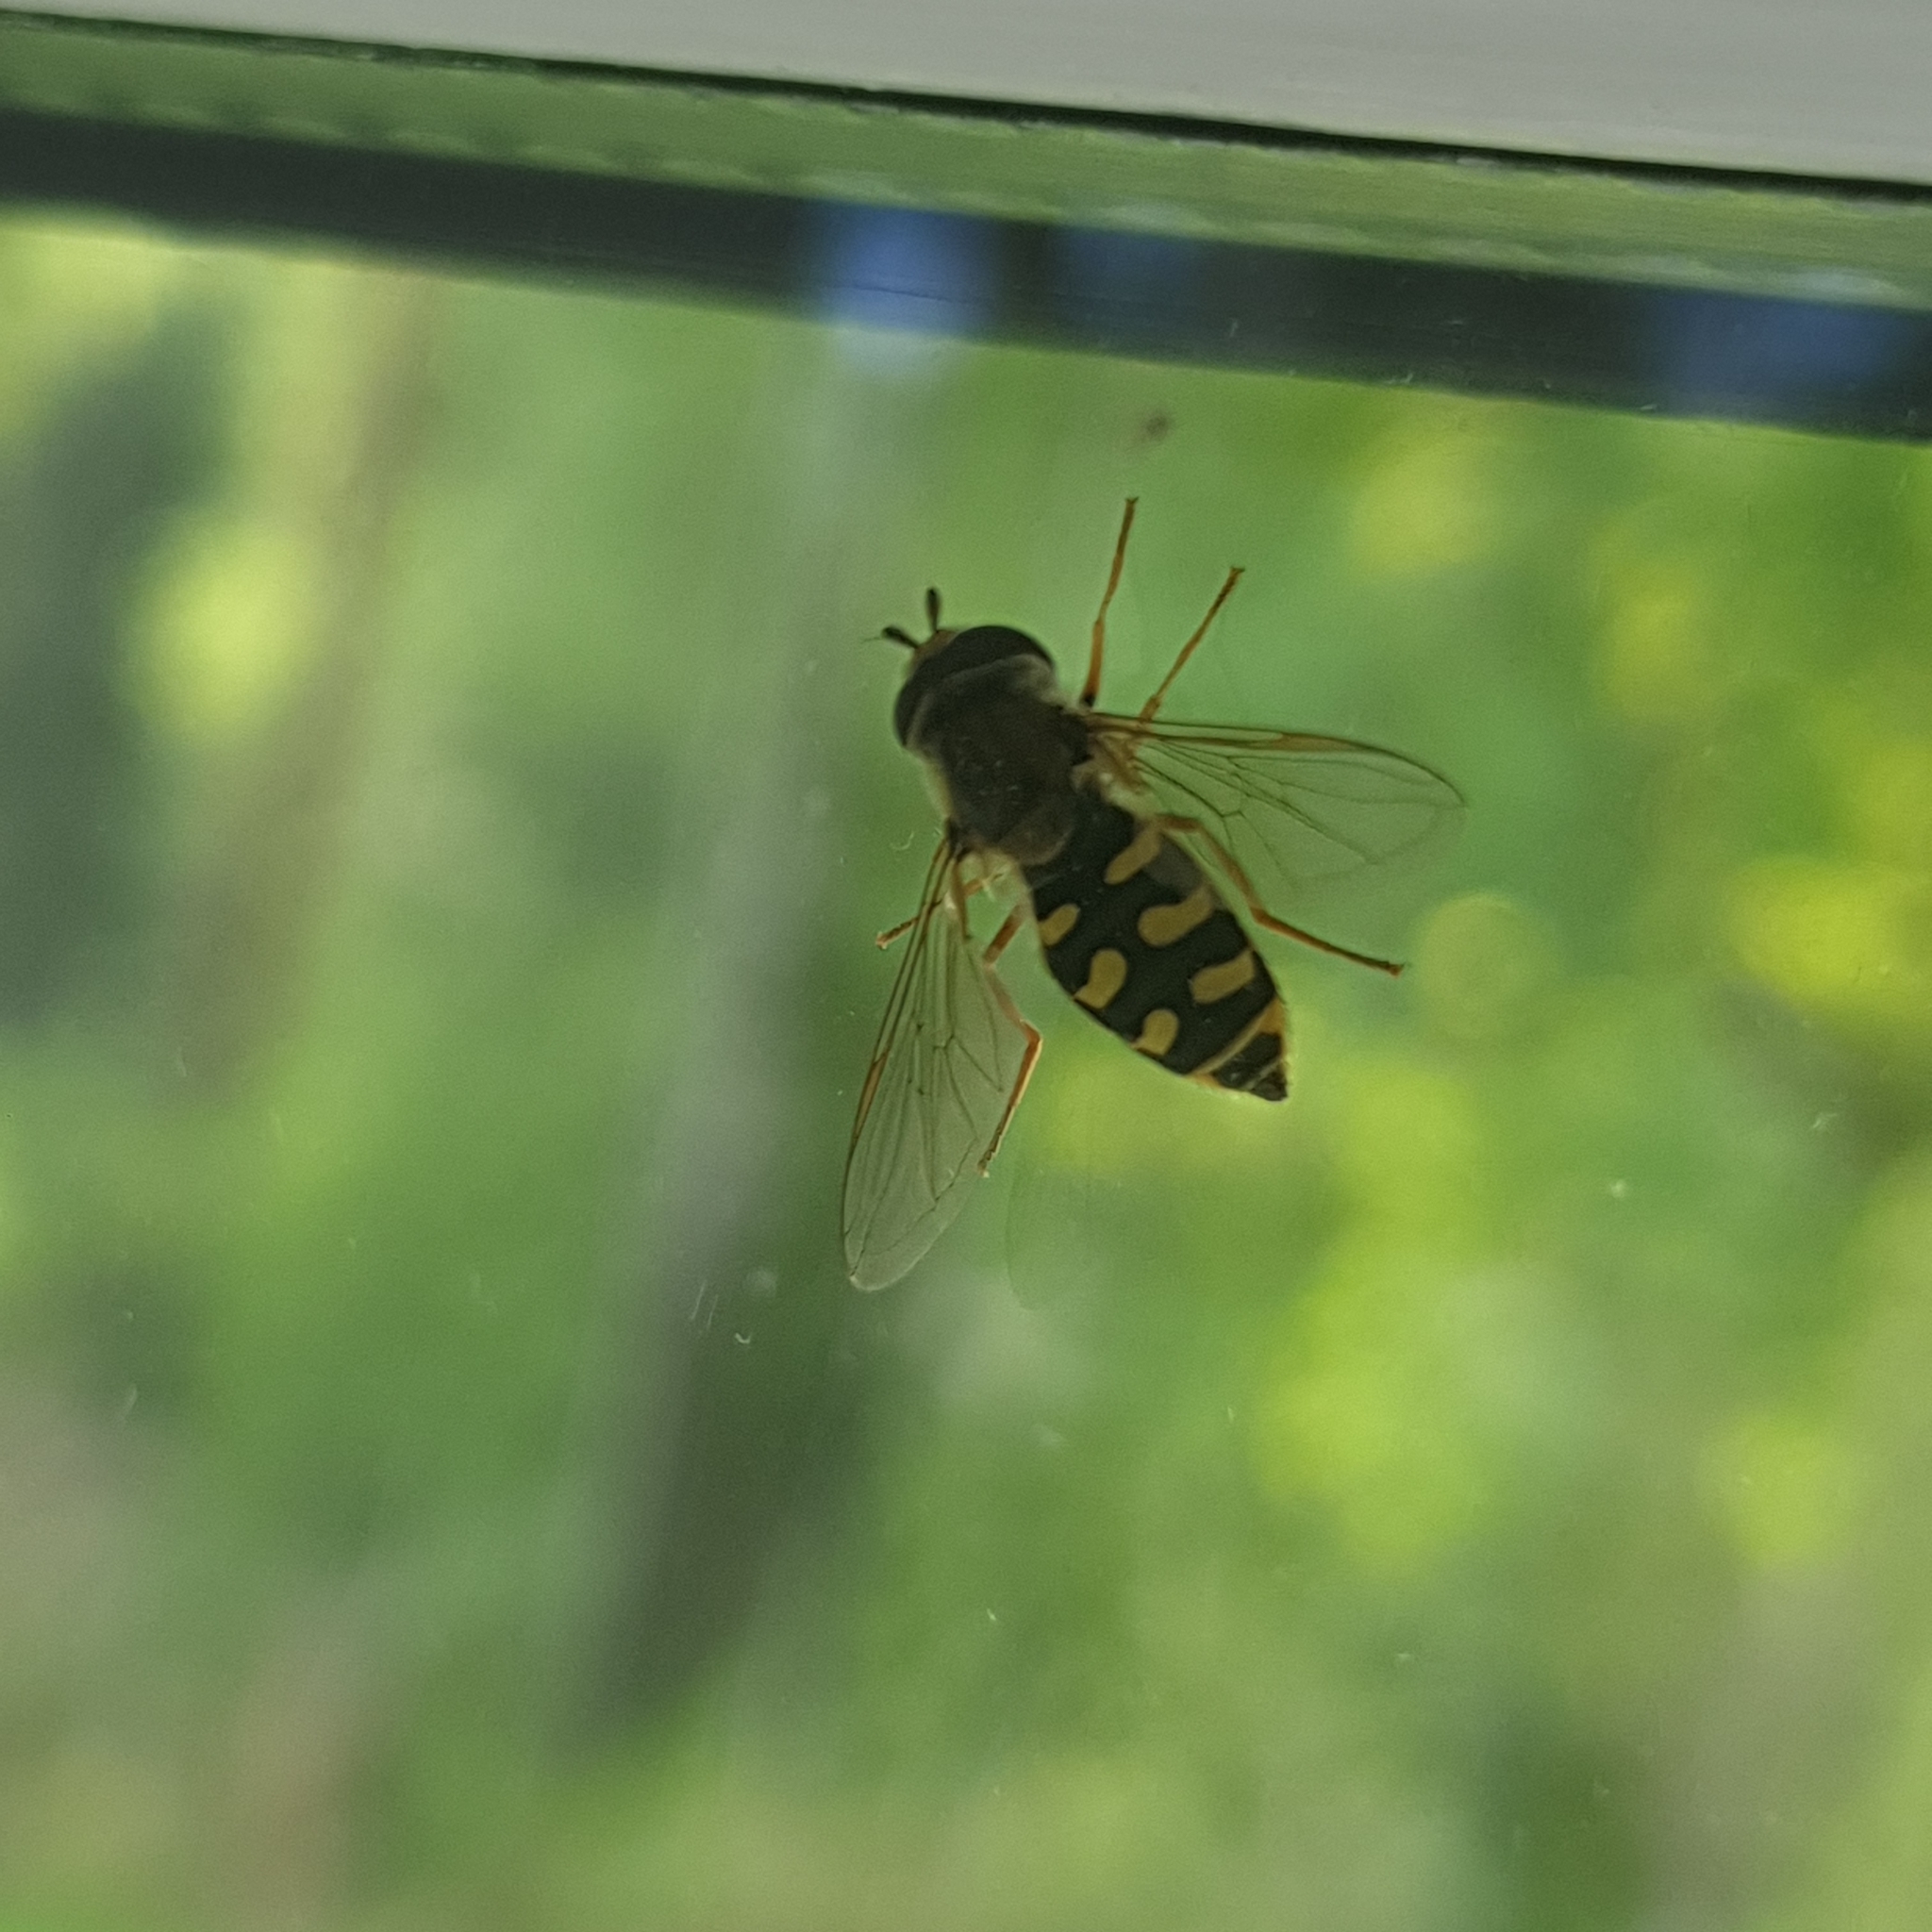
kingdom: Animalia
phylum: Arthropoda
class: Insecta
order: Diptera
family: Syrphidae
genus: Eupeodes
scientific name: Eupeodes corollae
